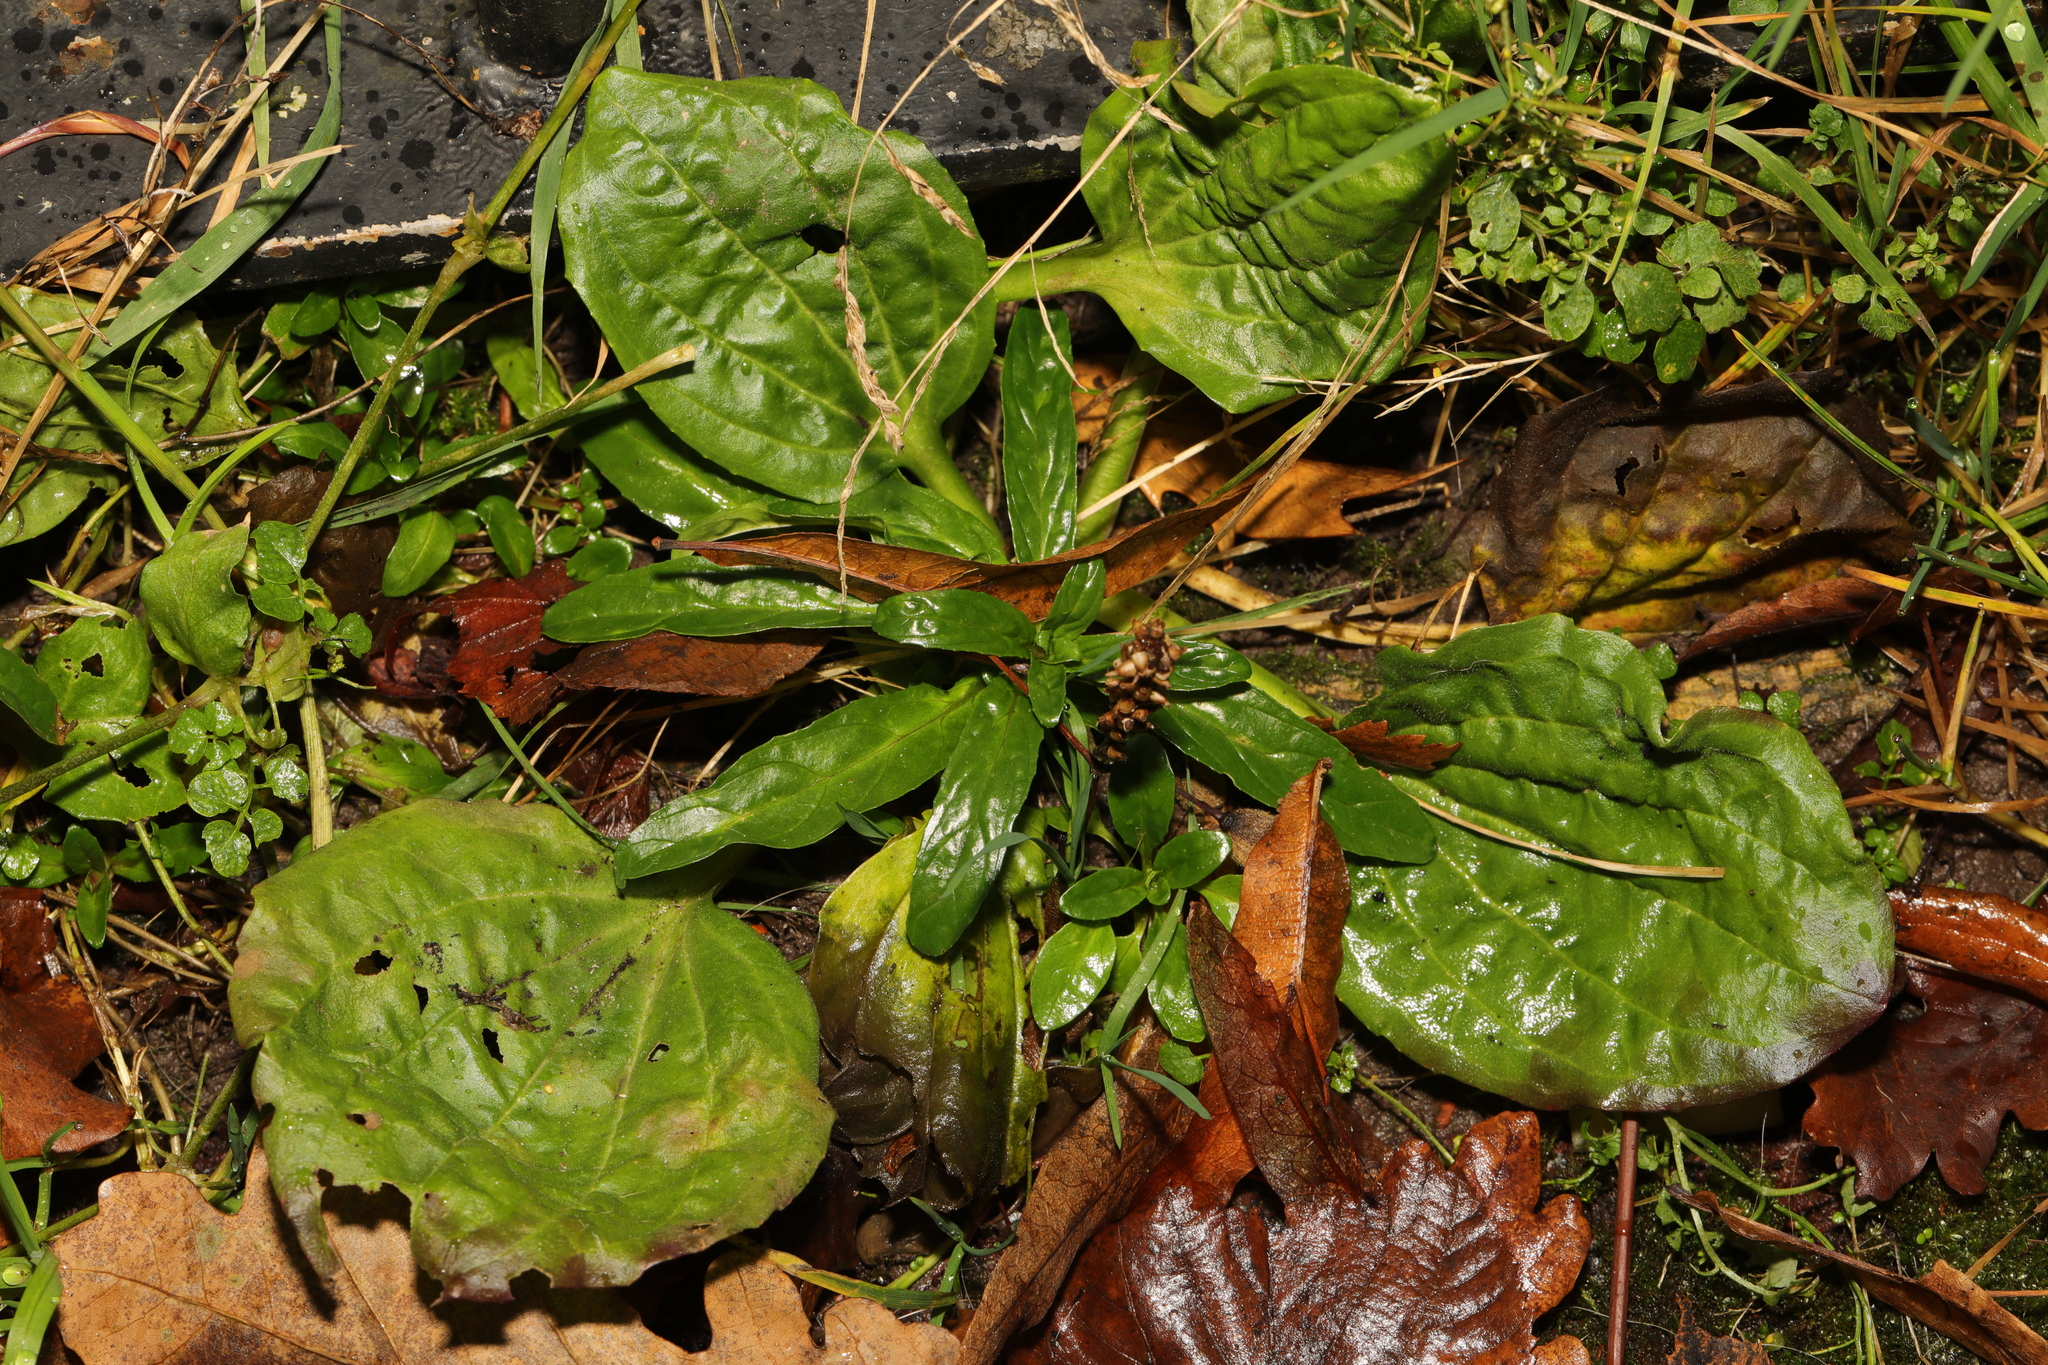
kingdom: Plantae
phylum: Tracheophyta
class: Magnoliopsida
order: Lamiales
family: Plantaginaceae
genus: Plantago
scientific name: Plantago major
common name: Common plantain
